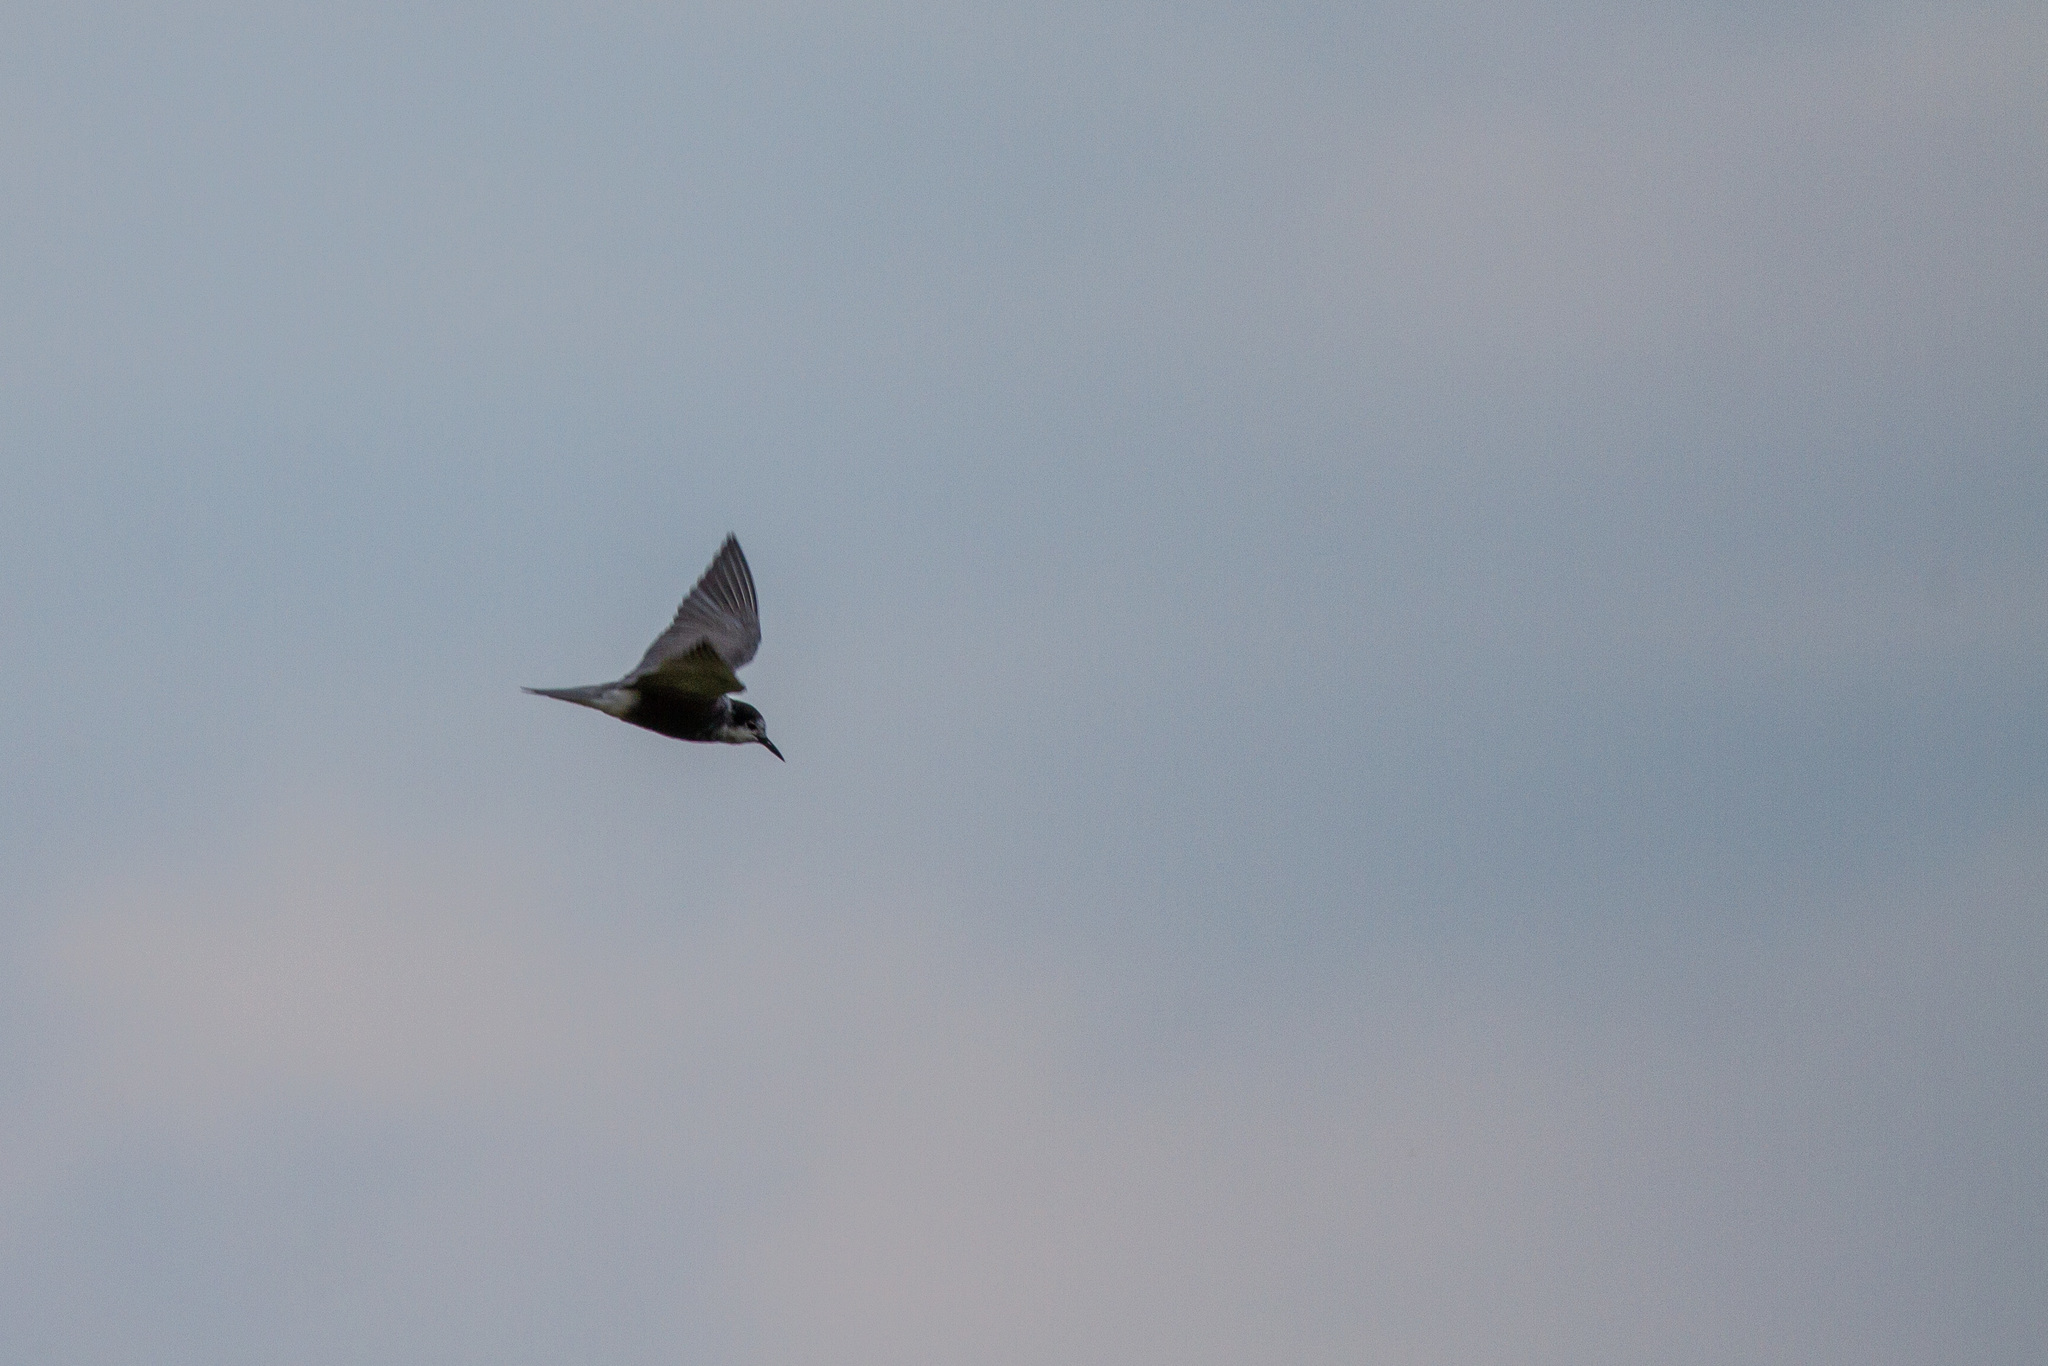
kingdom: Animalia
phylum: Chordata
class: Aves
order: Charadriiformes
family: Laridae
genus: Chlidonias
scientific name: Chlidonias niger
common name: Black tern
